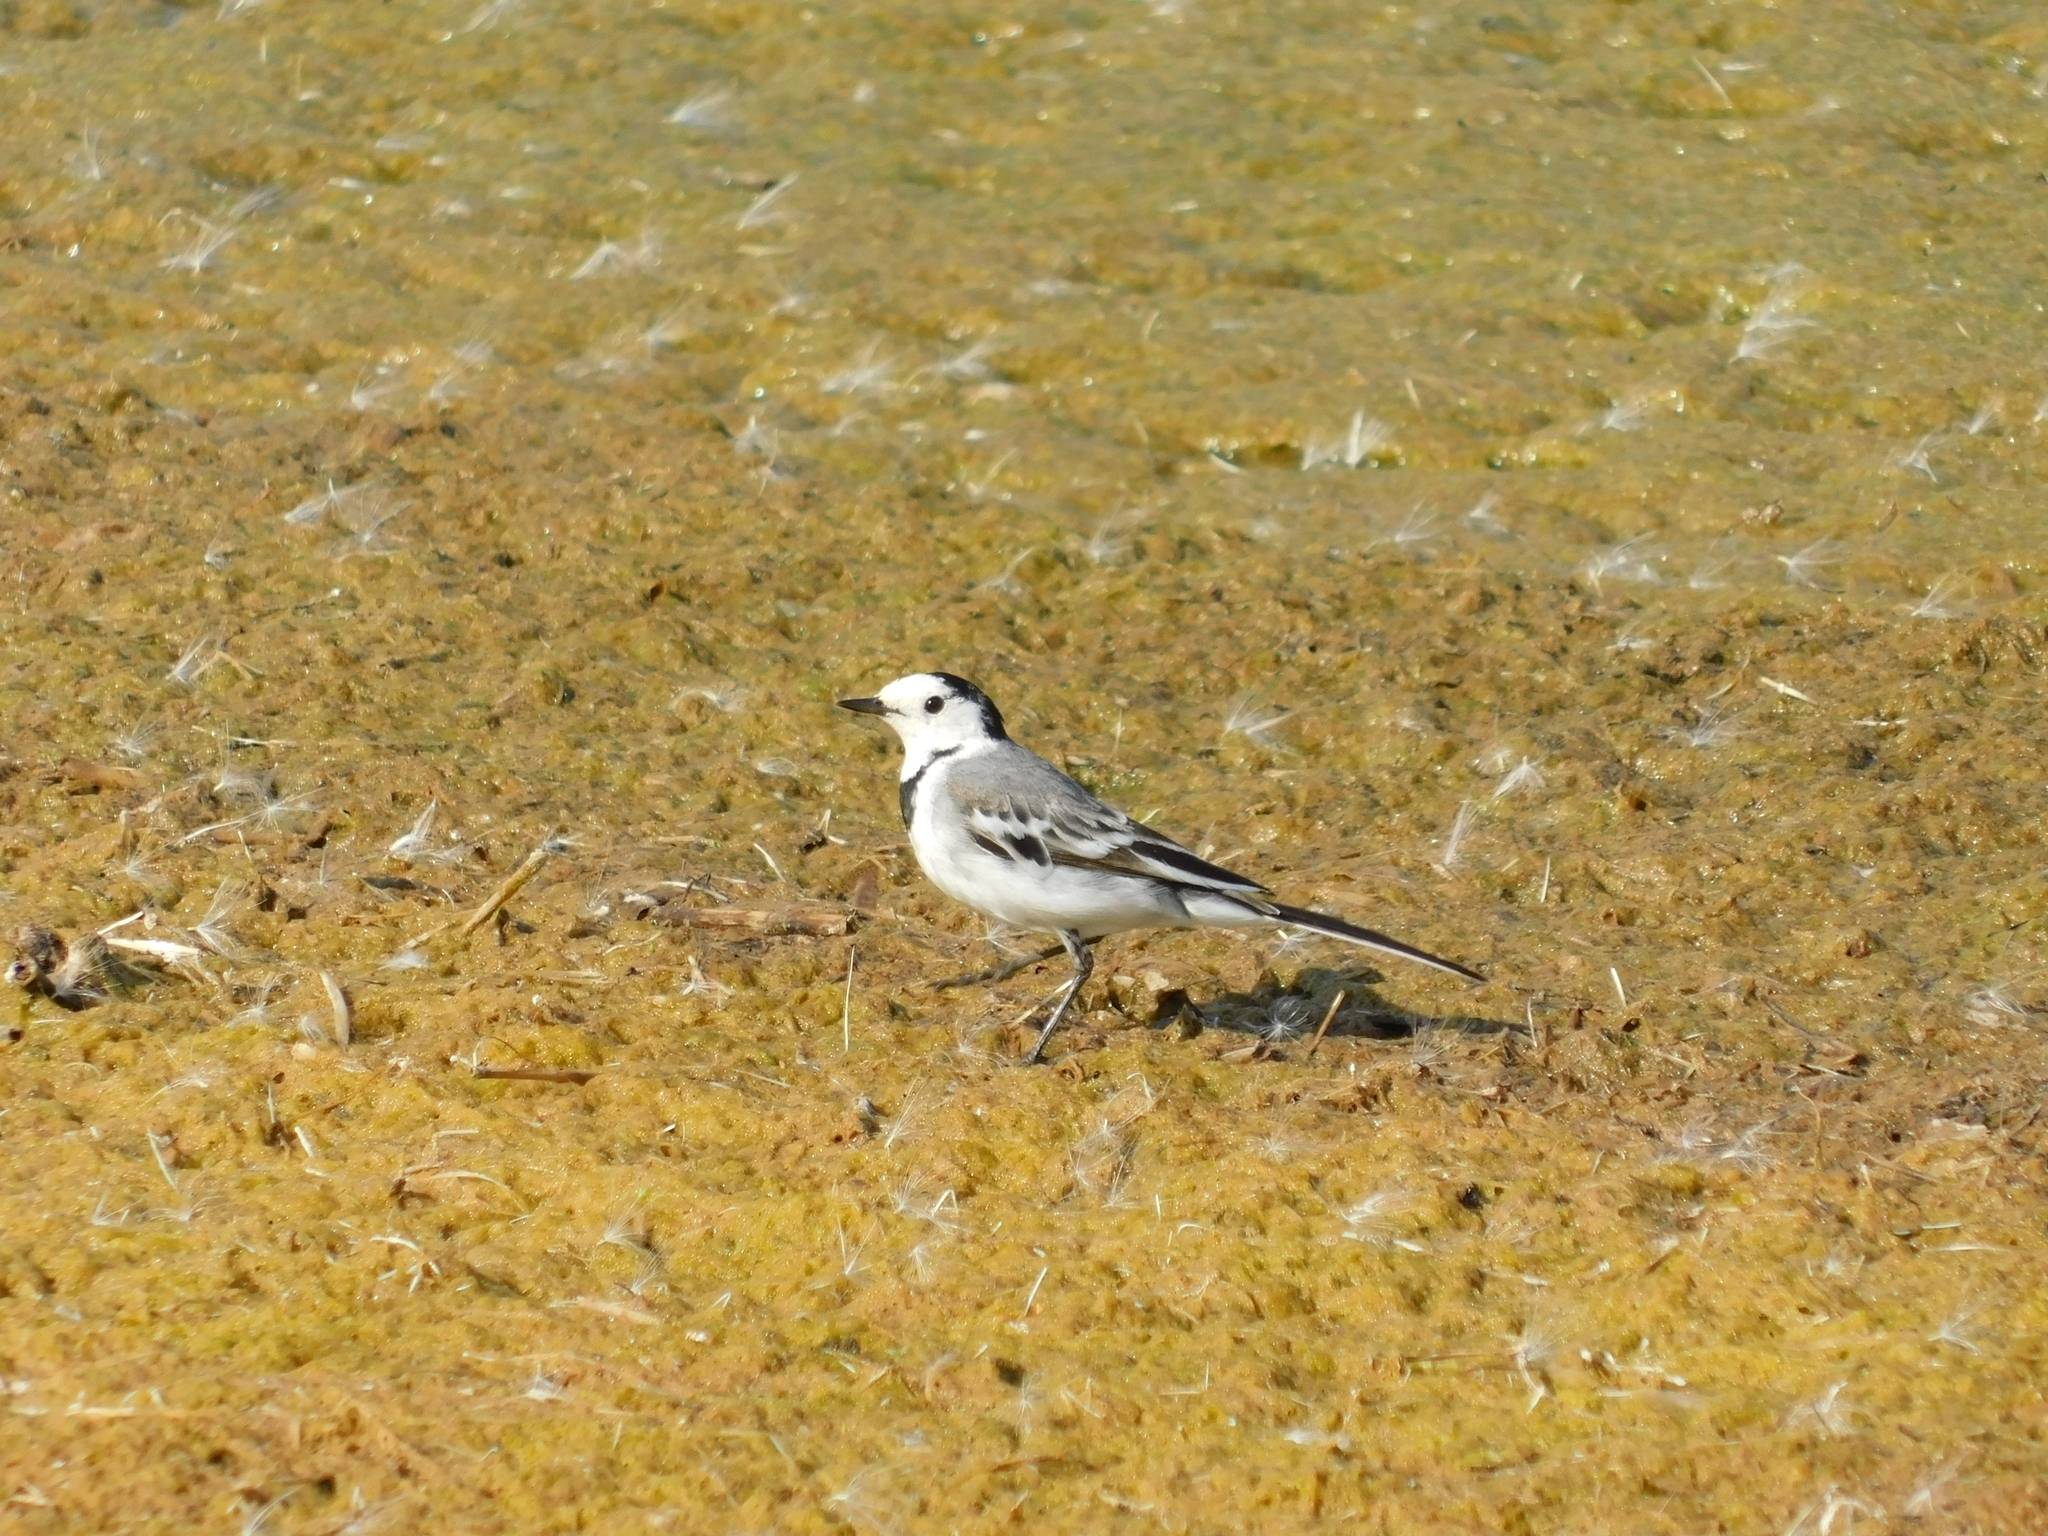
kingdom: Animalia
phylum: Chordata
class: Aves
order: Passeriformes
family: Motacillidae
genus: Motacilla
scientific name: Motacilla alba
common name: White wagtail
